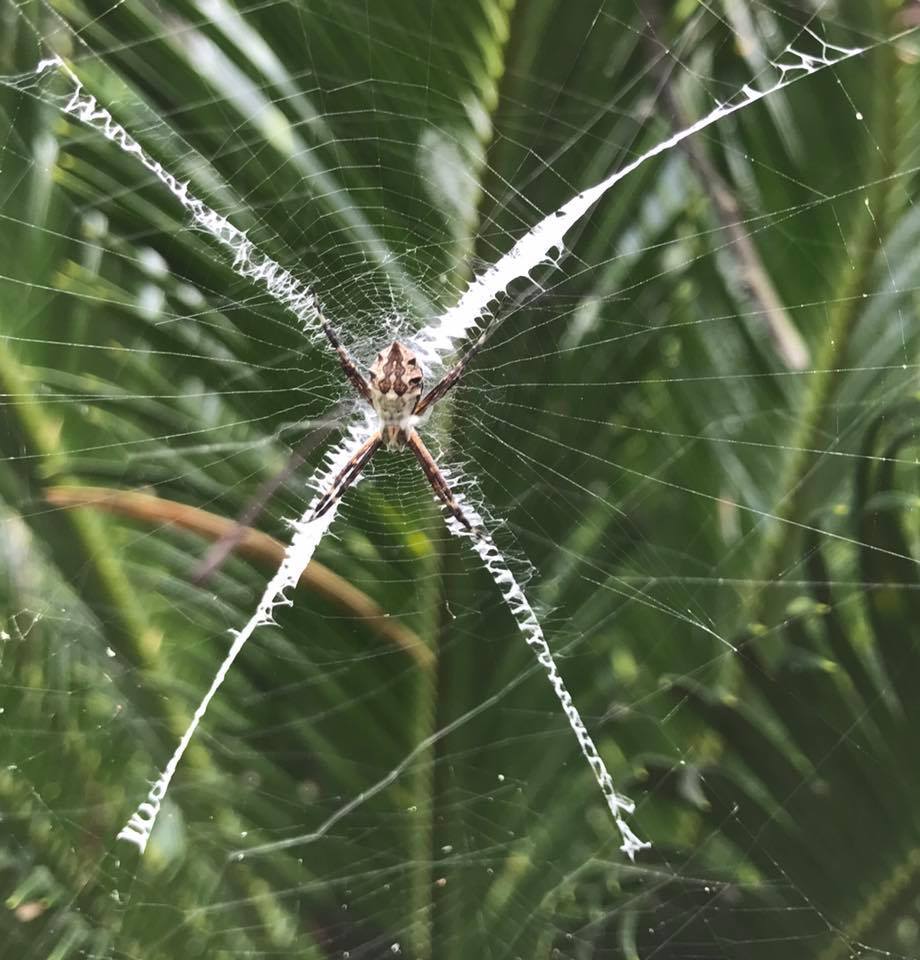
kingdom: Animalia
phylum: Arthropoda
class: Arachnida
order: Araneae
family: Araneidae
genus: Argiope
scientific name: Argiope argentata
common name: Orb weavers
